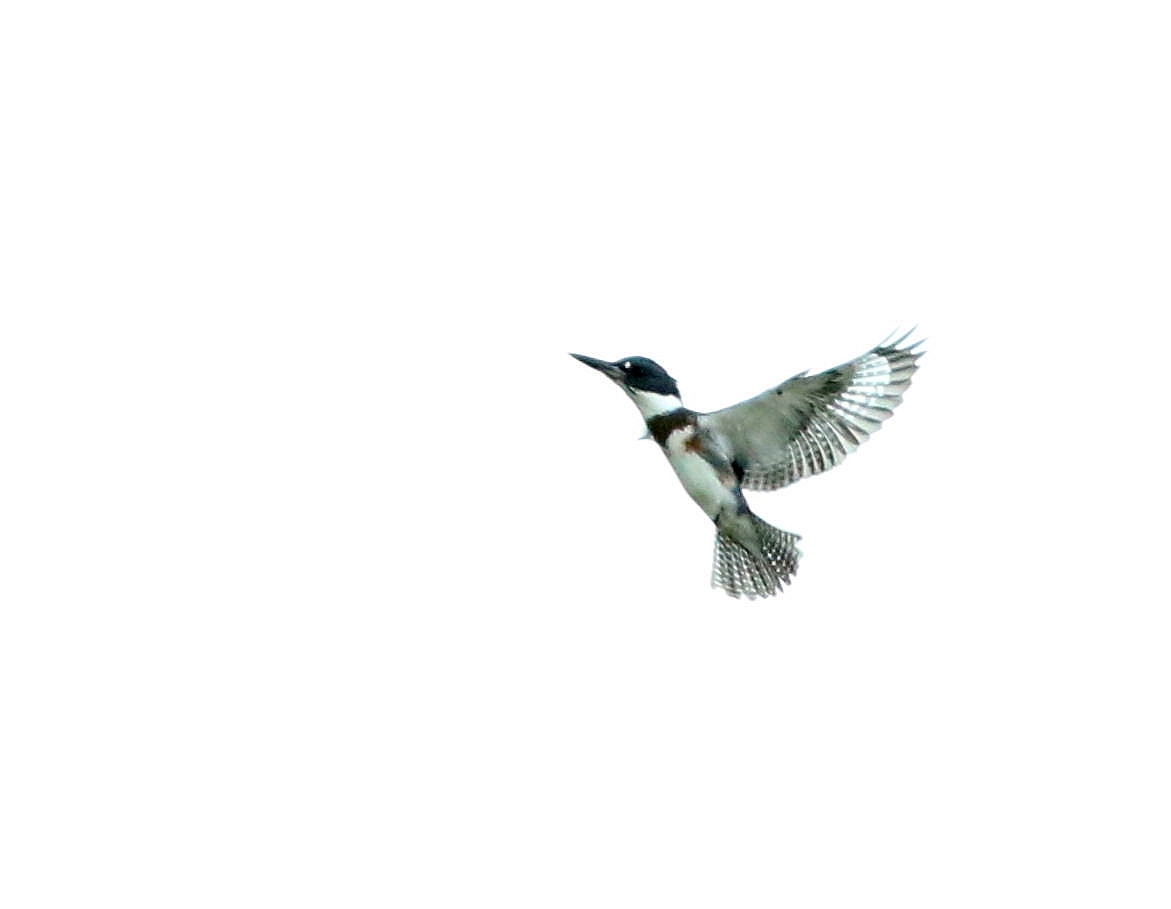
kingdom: Animalia
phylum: Chordata
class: Aves
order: Coraciiformes
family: Alcedinidae
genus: Megaceryle
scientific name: Megaceryle alcyon
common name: Belted kingfisher
